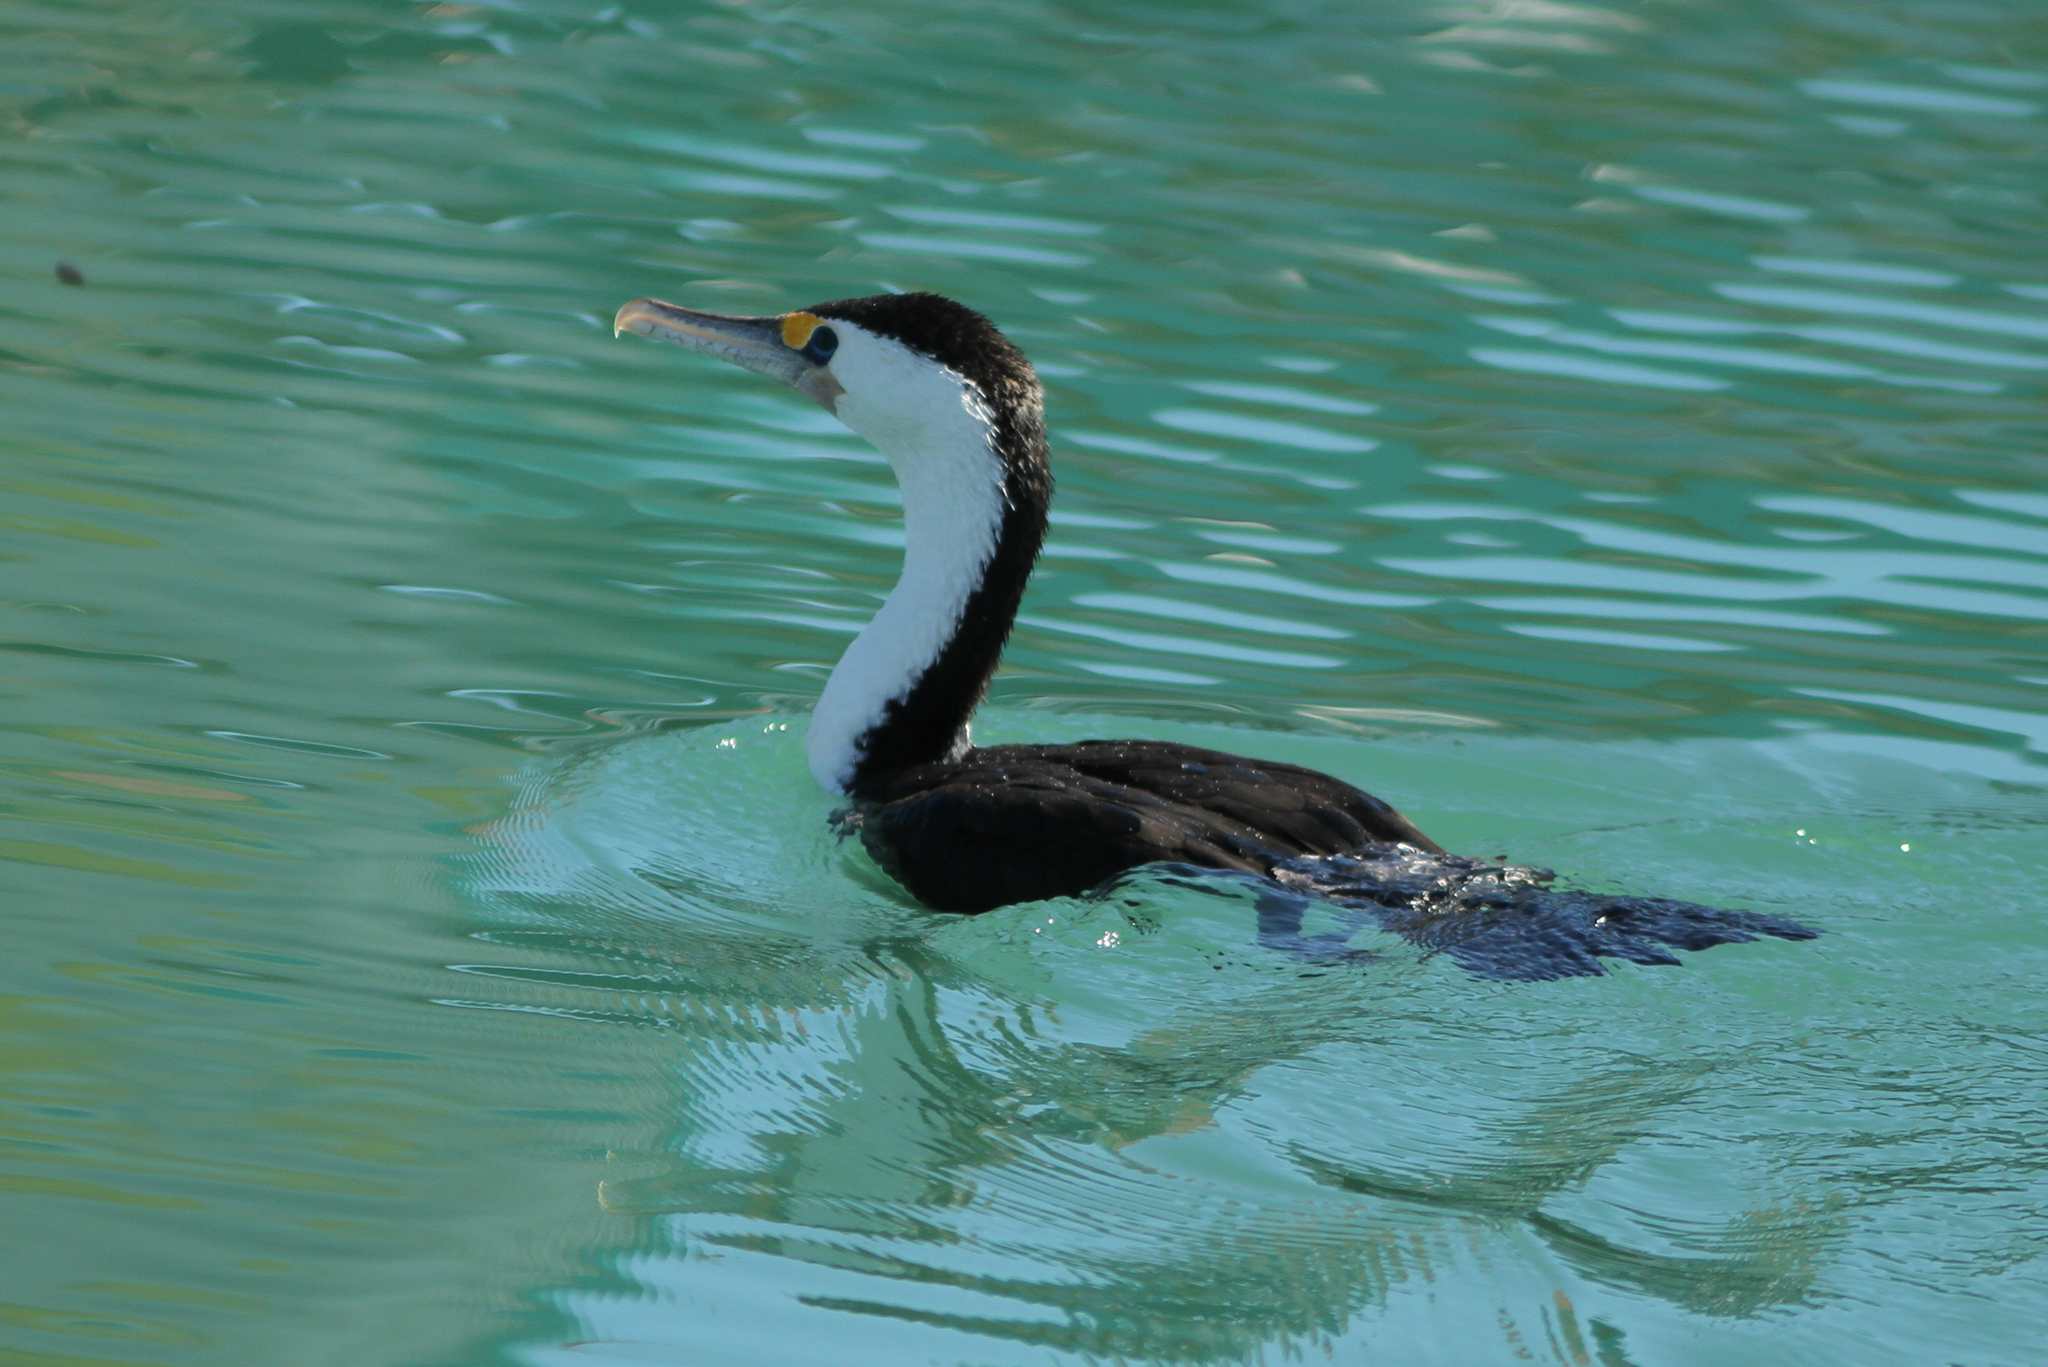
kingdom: Animalia
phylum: Chordata
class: Aves
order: Suliformes
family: Phalacrocoracidae
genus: Phalacrocorax
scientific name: Phalacrocorax varius
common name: Pied cormorant
